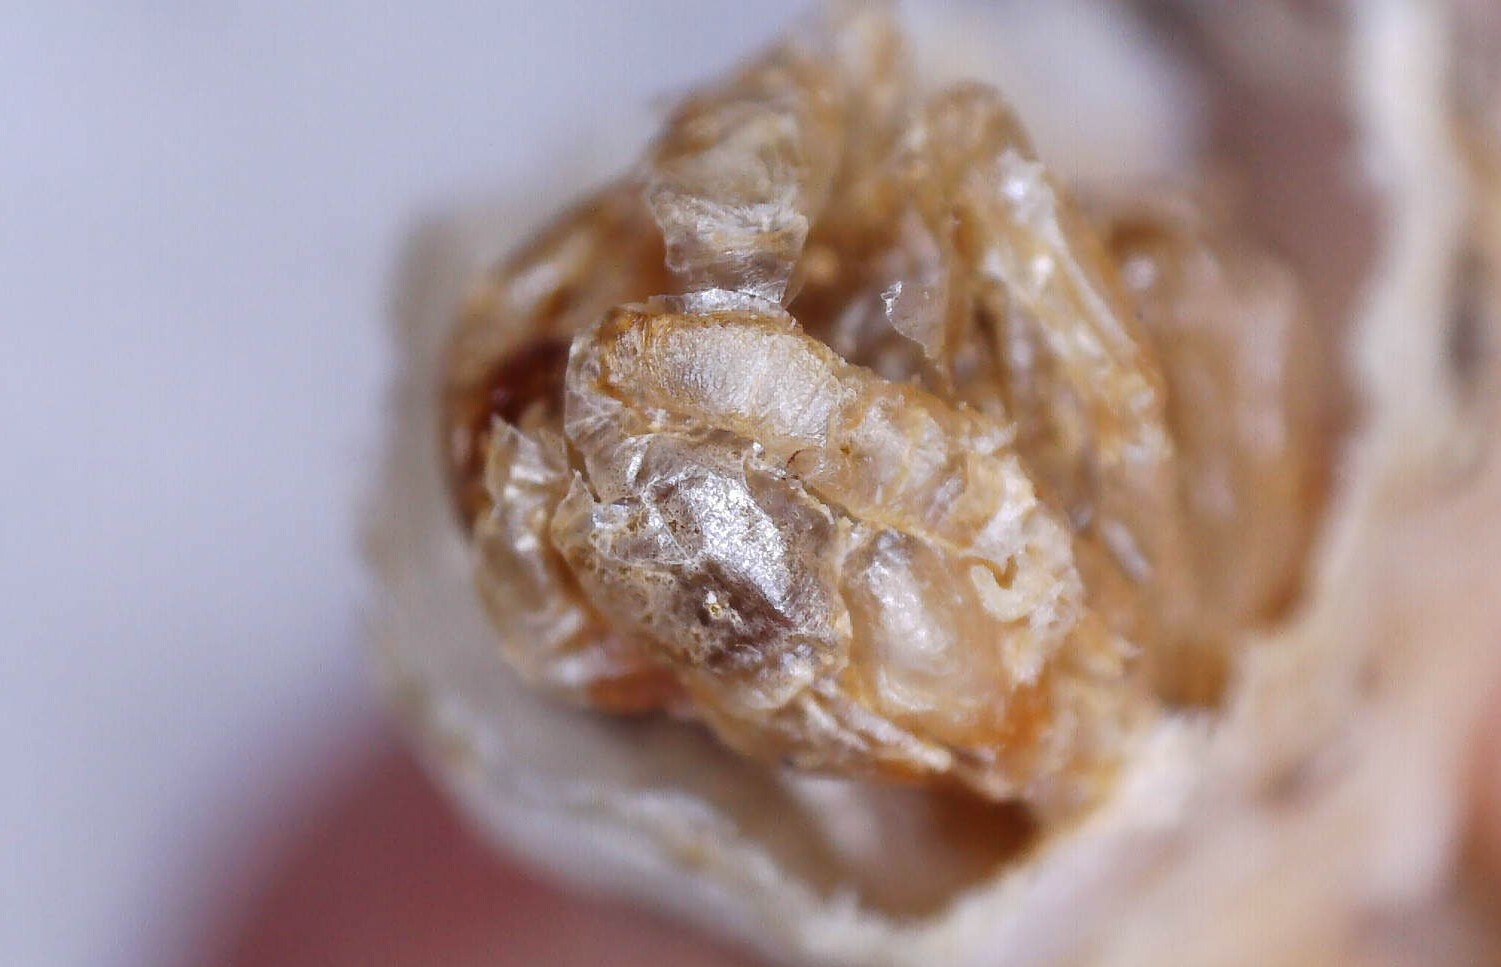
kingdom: Animalia
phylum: Arthropoda
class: Insecta
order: Hymenoptera
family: Vespidae
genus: Dolichovespula
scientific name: Dolichovespula maculata
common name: Bald-faced hornet
